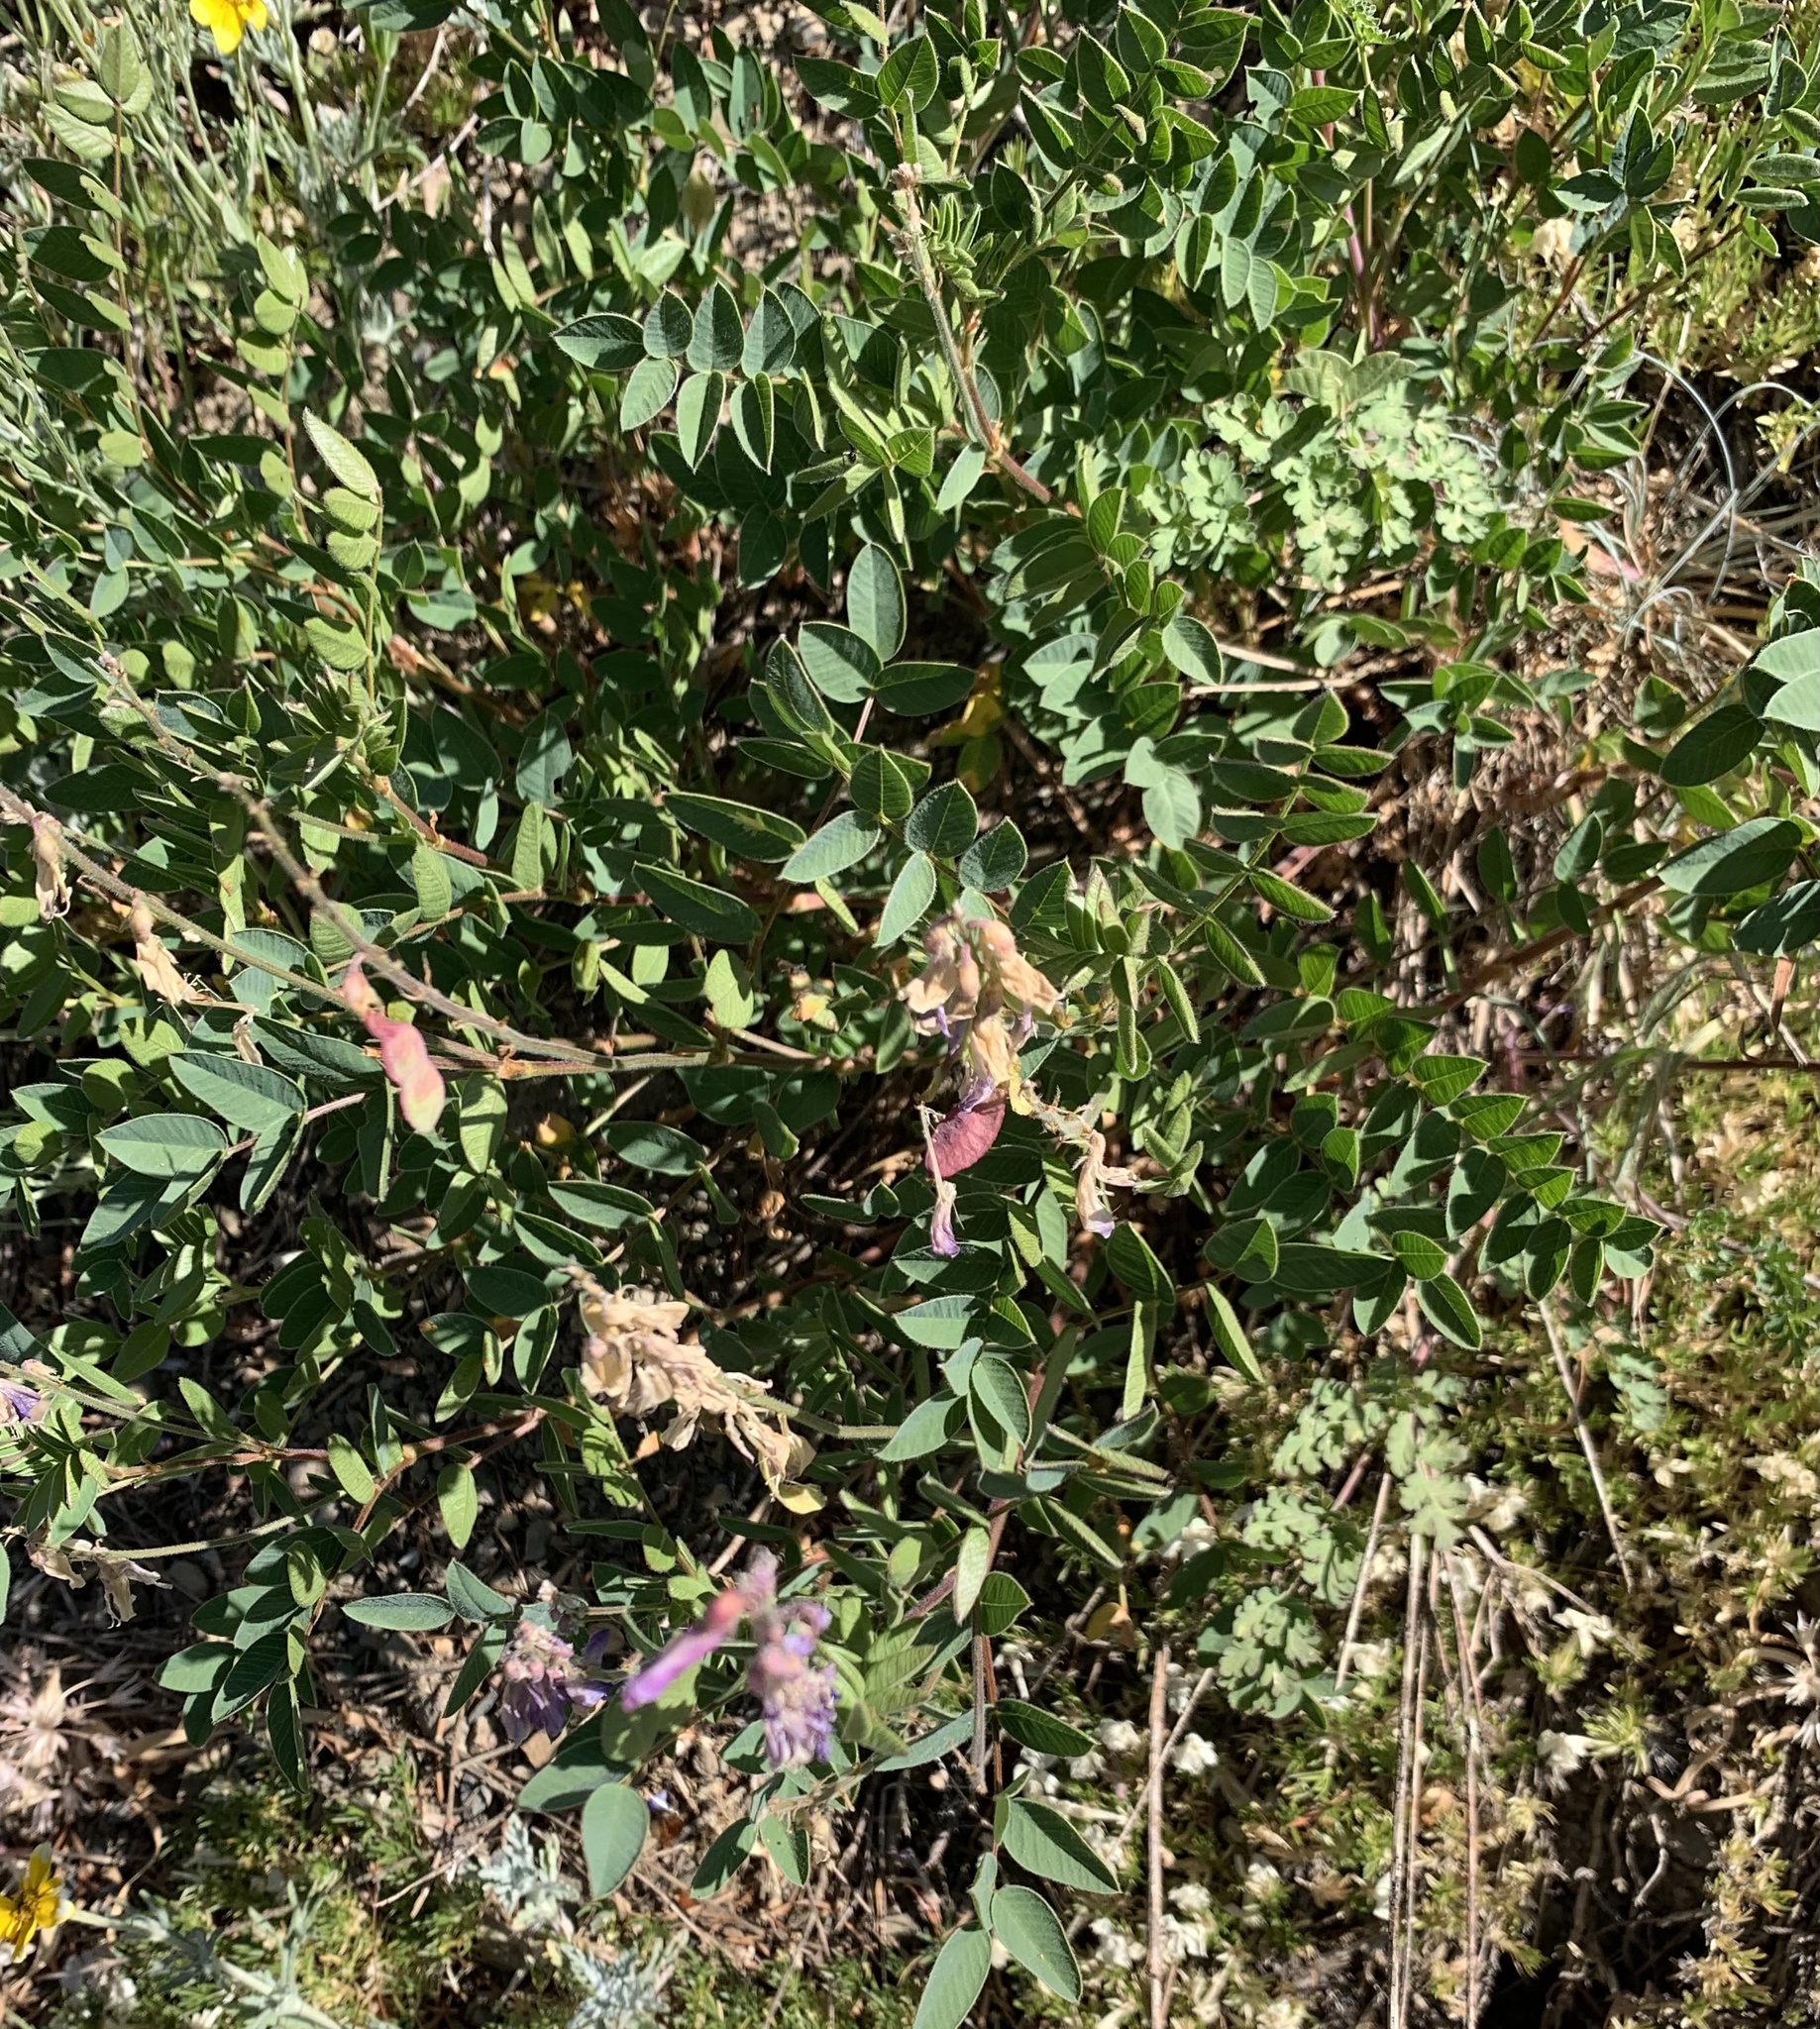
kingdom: Plantae
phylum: Tracheophyta
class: Magnoliopsida
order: Fabales
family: Fabaceae
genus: Hedysarum
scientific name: Hedysarum occidentale
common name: Western hedysarum
